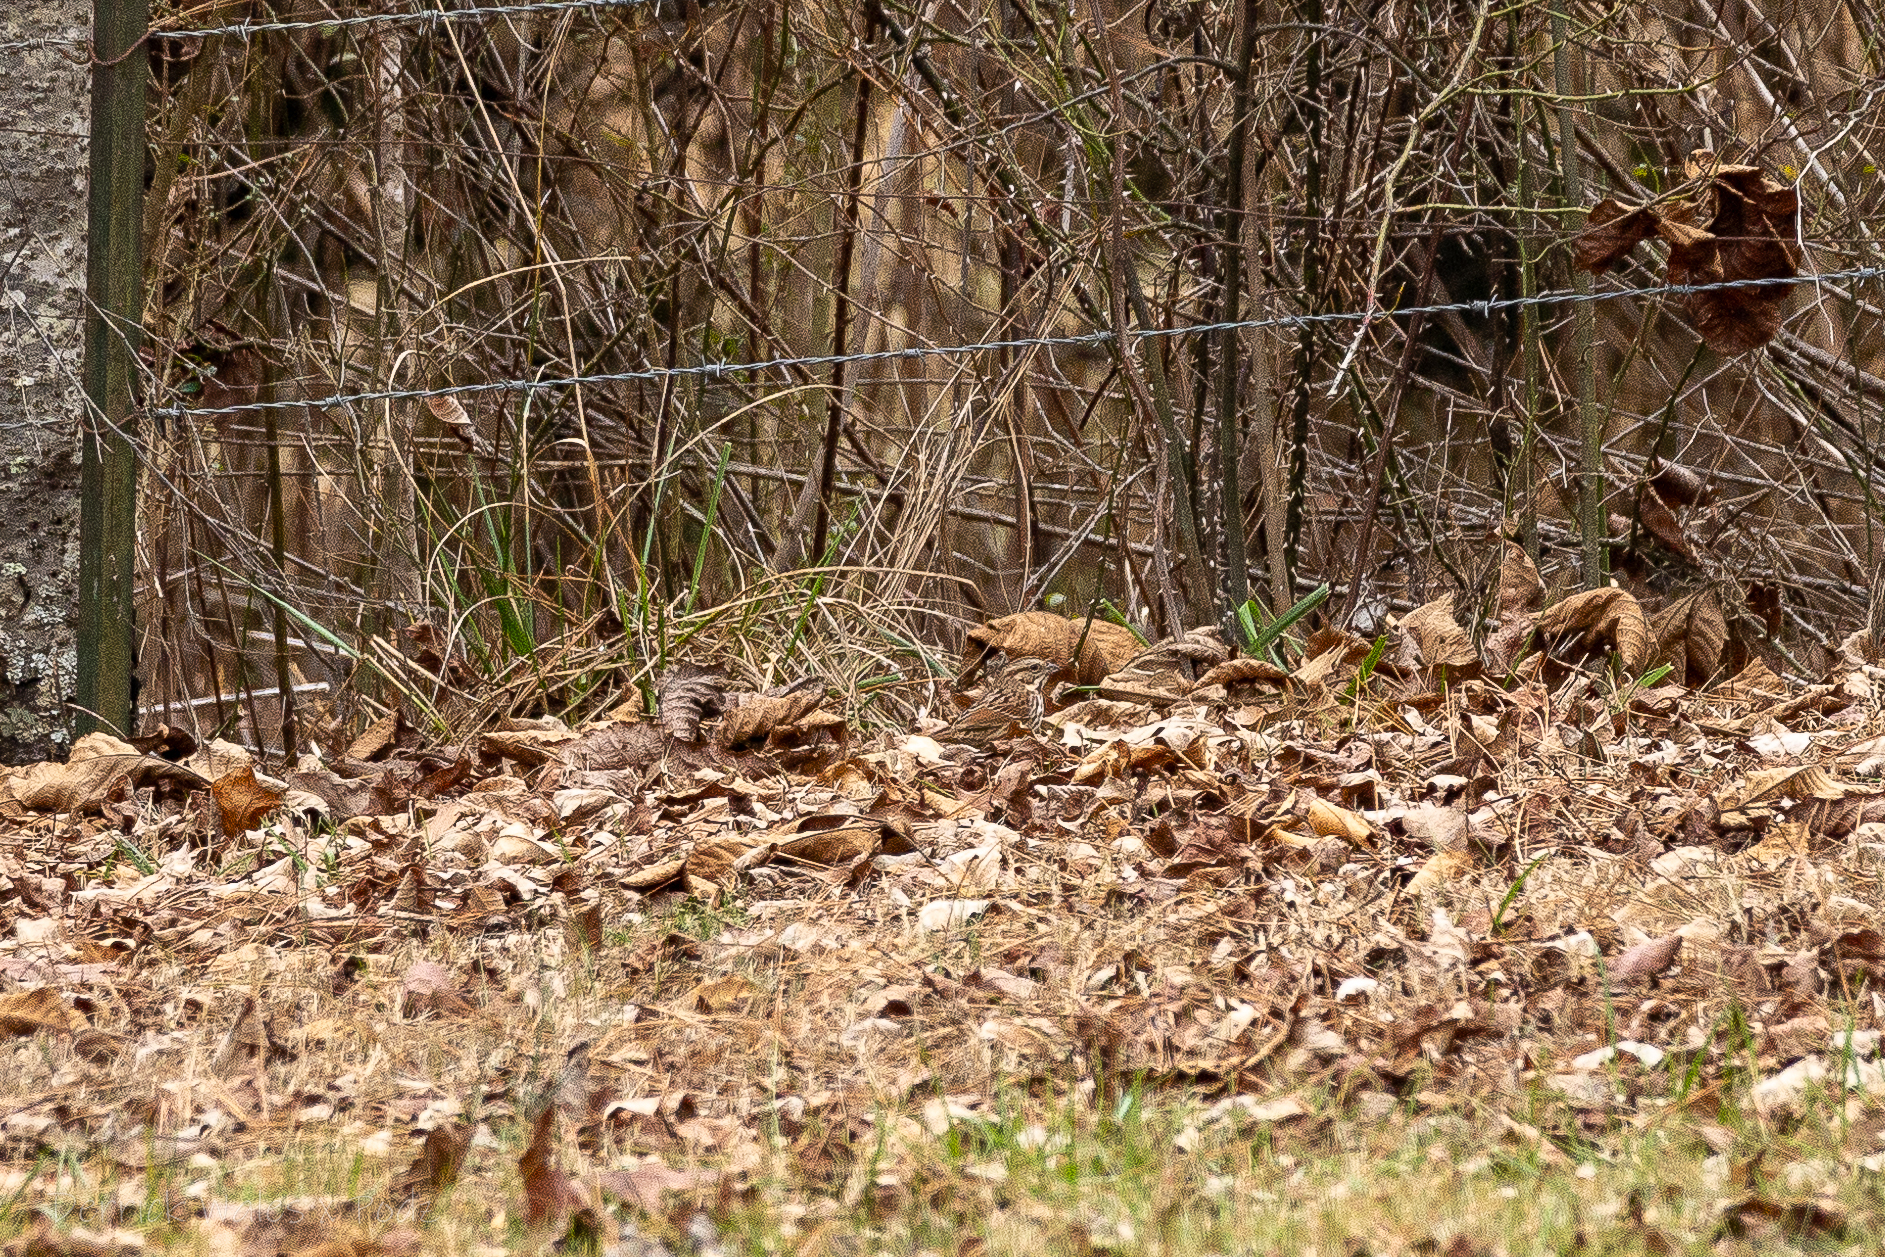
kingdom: Animalia
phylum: Chordata
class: Aves
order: Passeriformes
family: Passerellidae
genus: Melospiza
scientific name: Melospiza melodia
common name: Song sparrow
